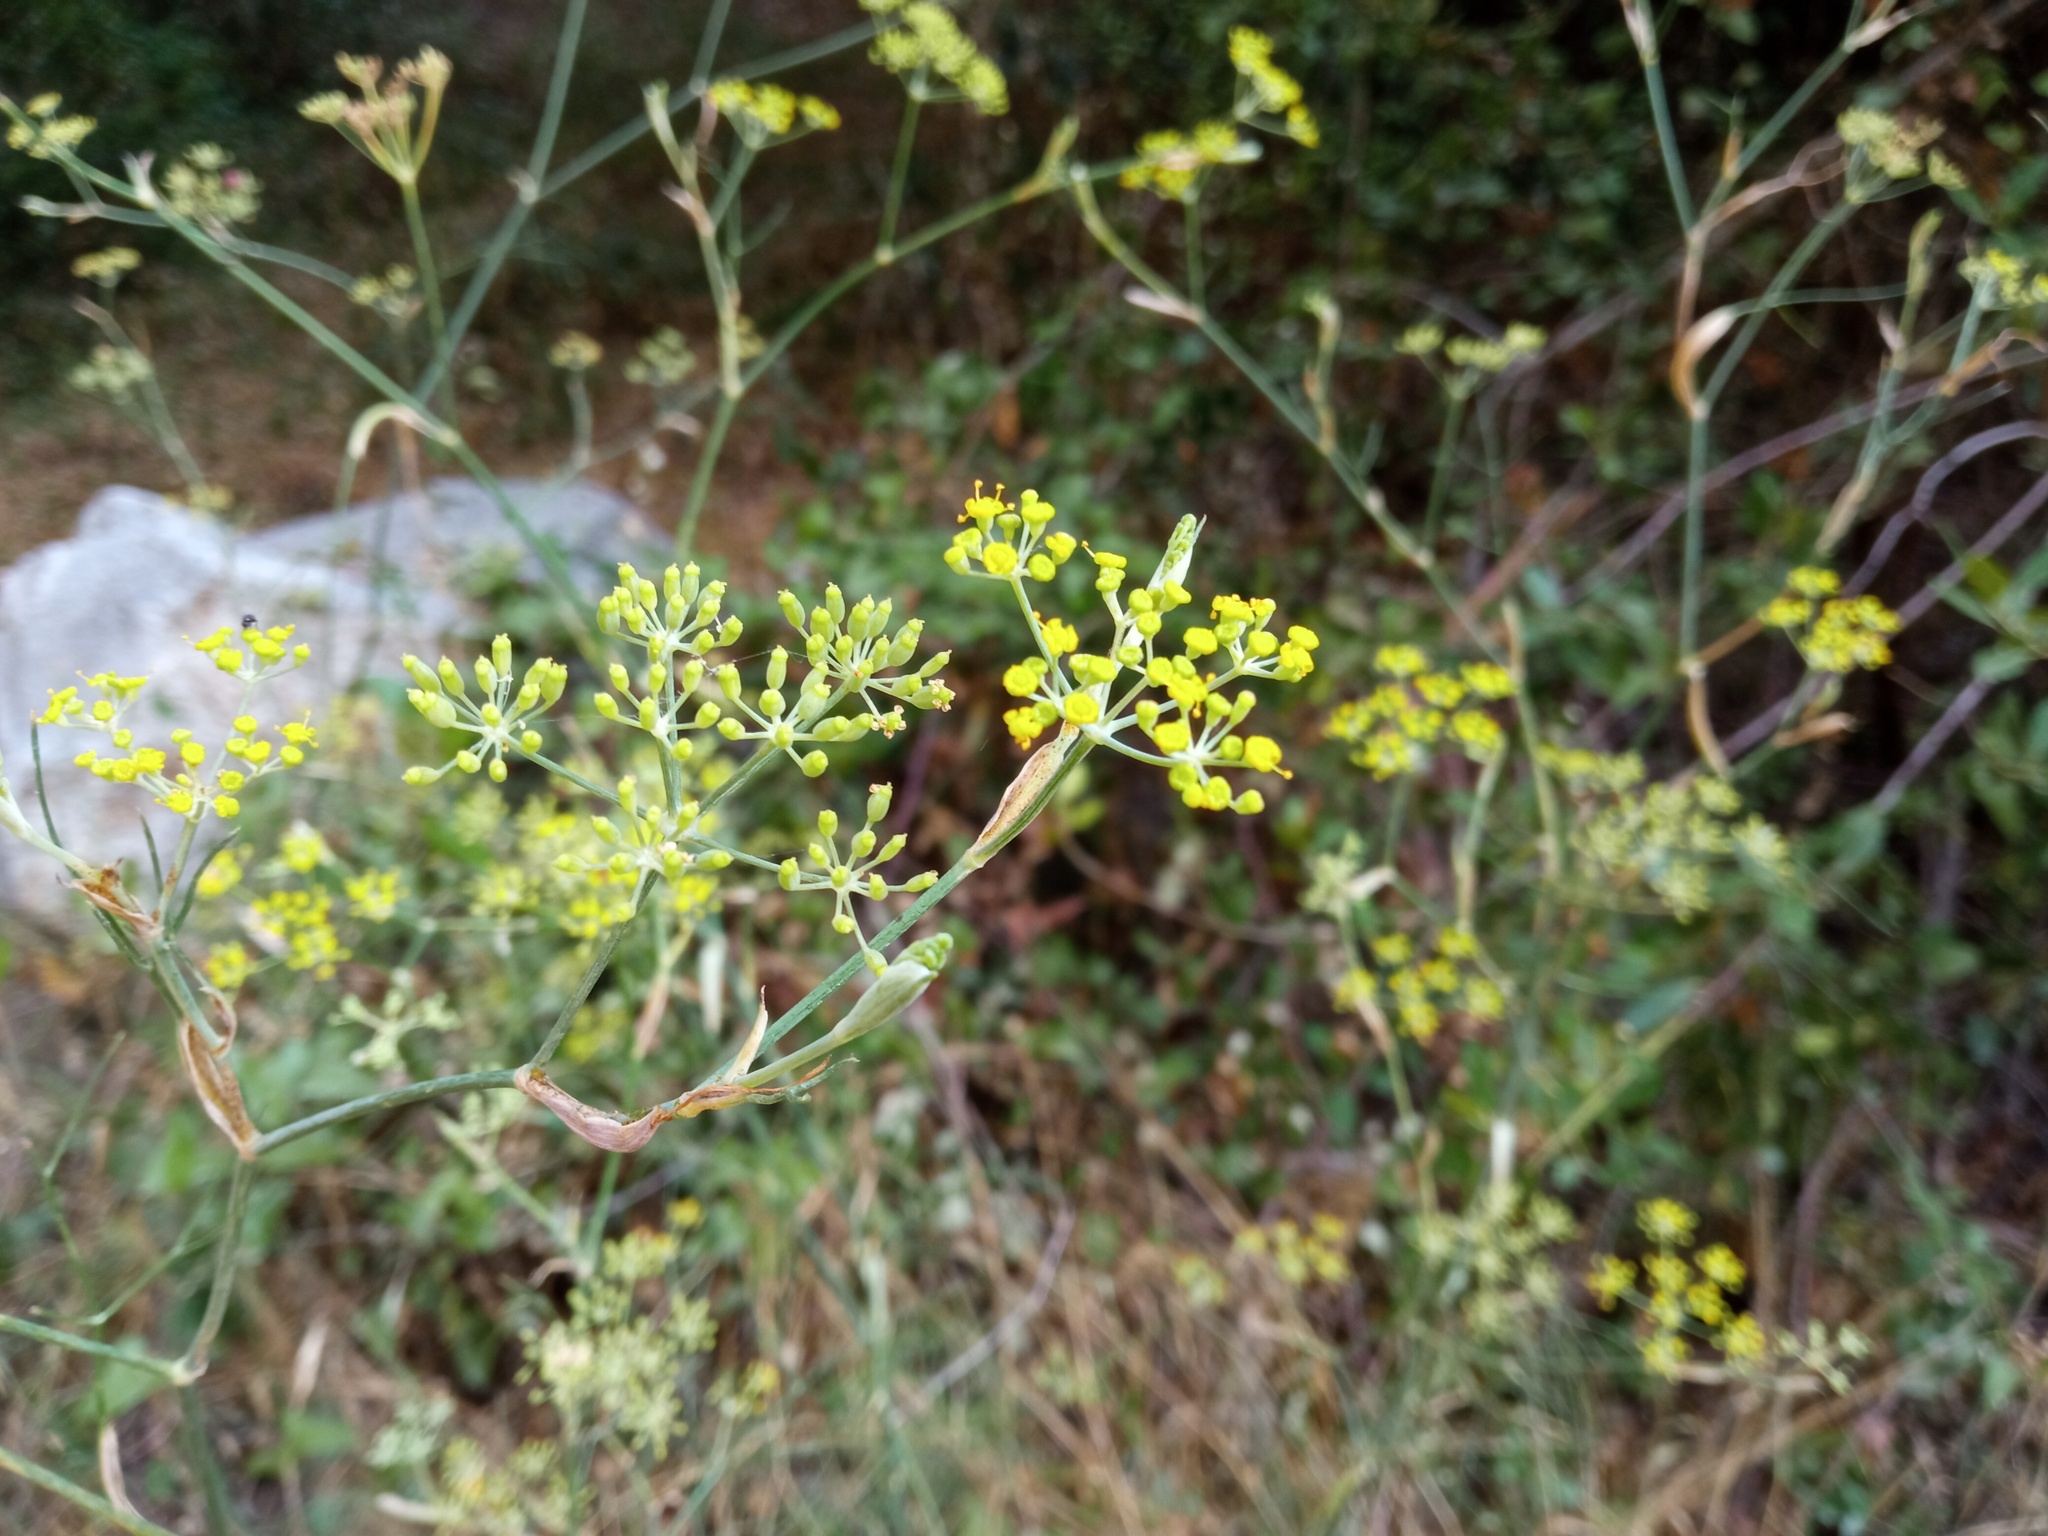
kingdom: Plantae
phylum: Tracheophyta
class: Magnoliopsida
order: Apiales
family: Apiaceae
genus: Foeniculum
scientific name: Foeniculum vulgare
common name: Fennel
